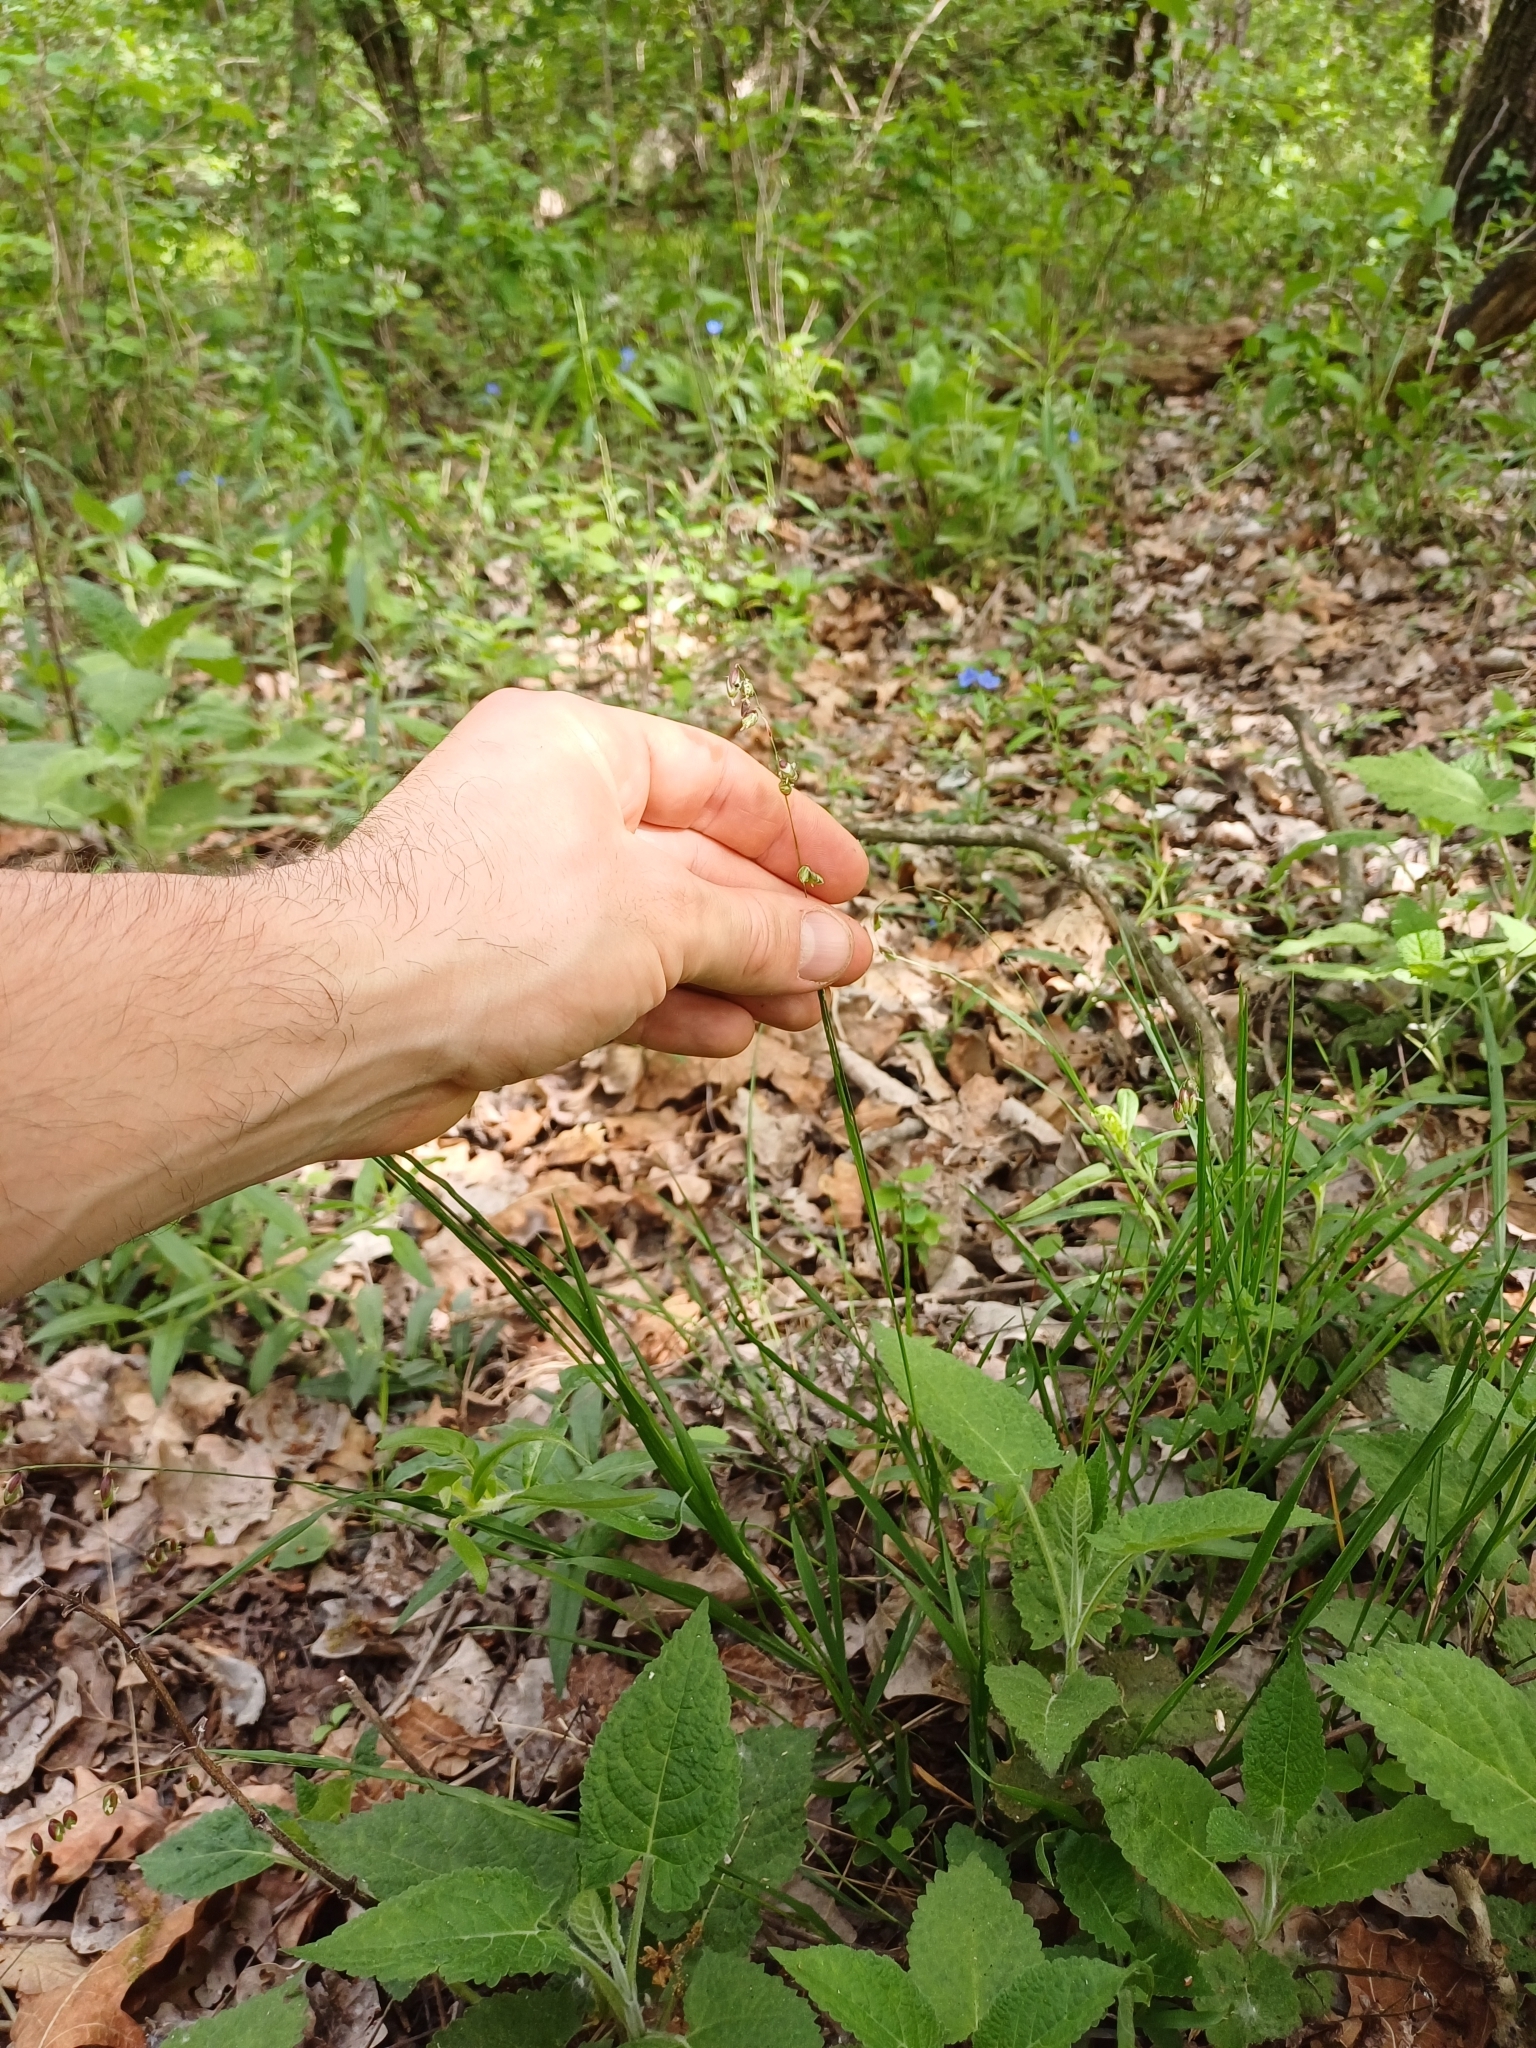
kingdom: Plantae
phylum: Tracheophyta
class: Liliopsida
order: Poales
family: Poaceae
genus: Melica
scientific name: Melica nutans
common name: Mountain melick
